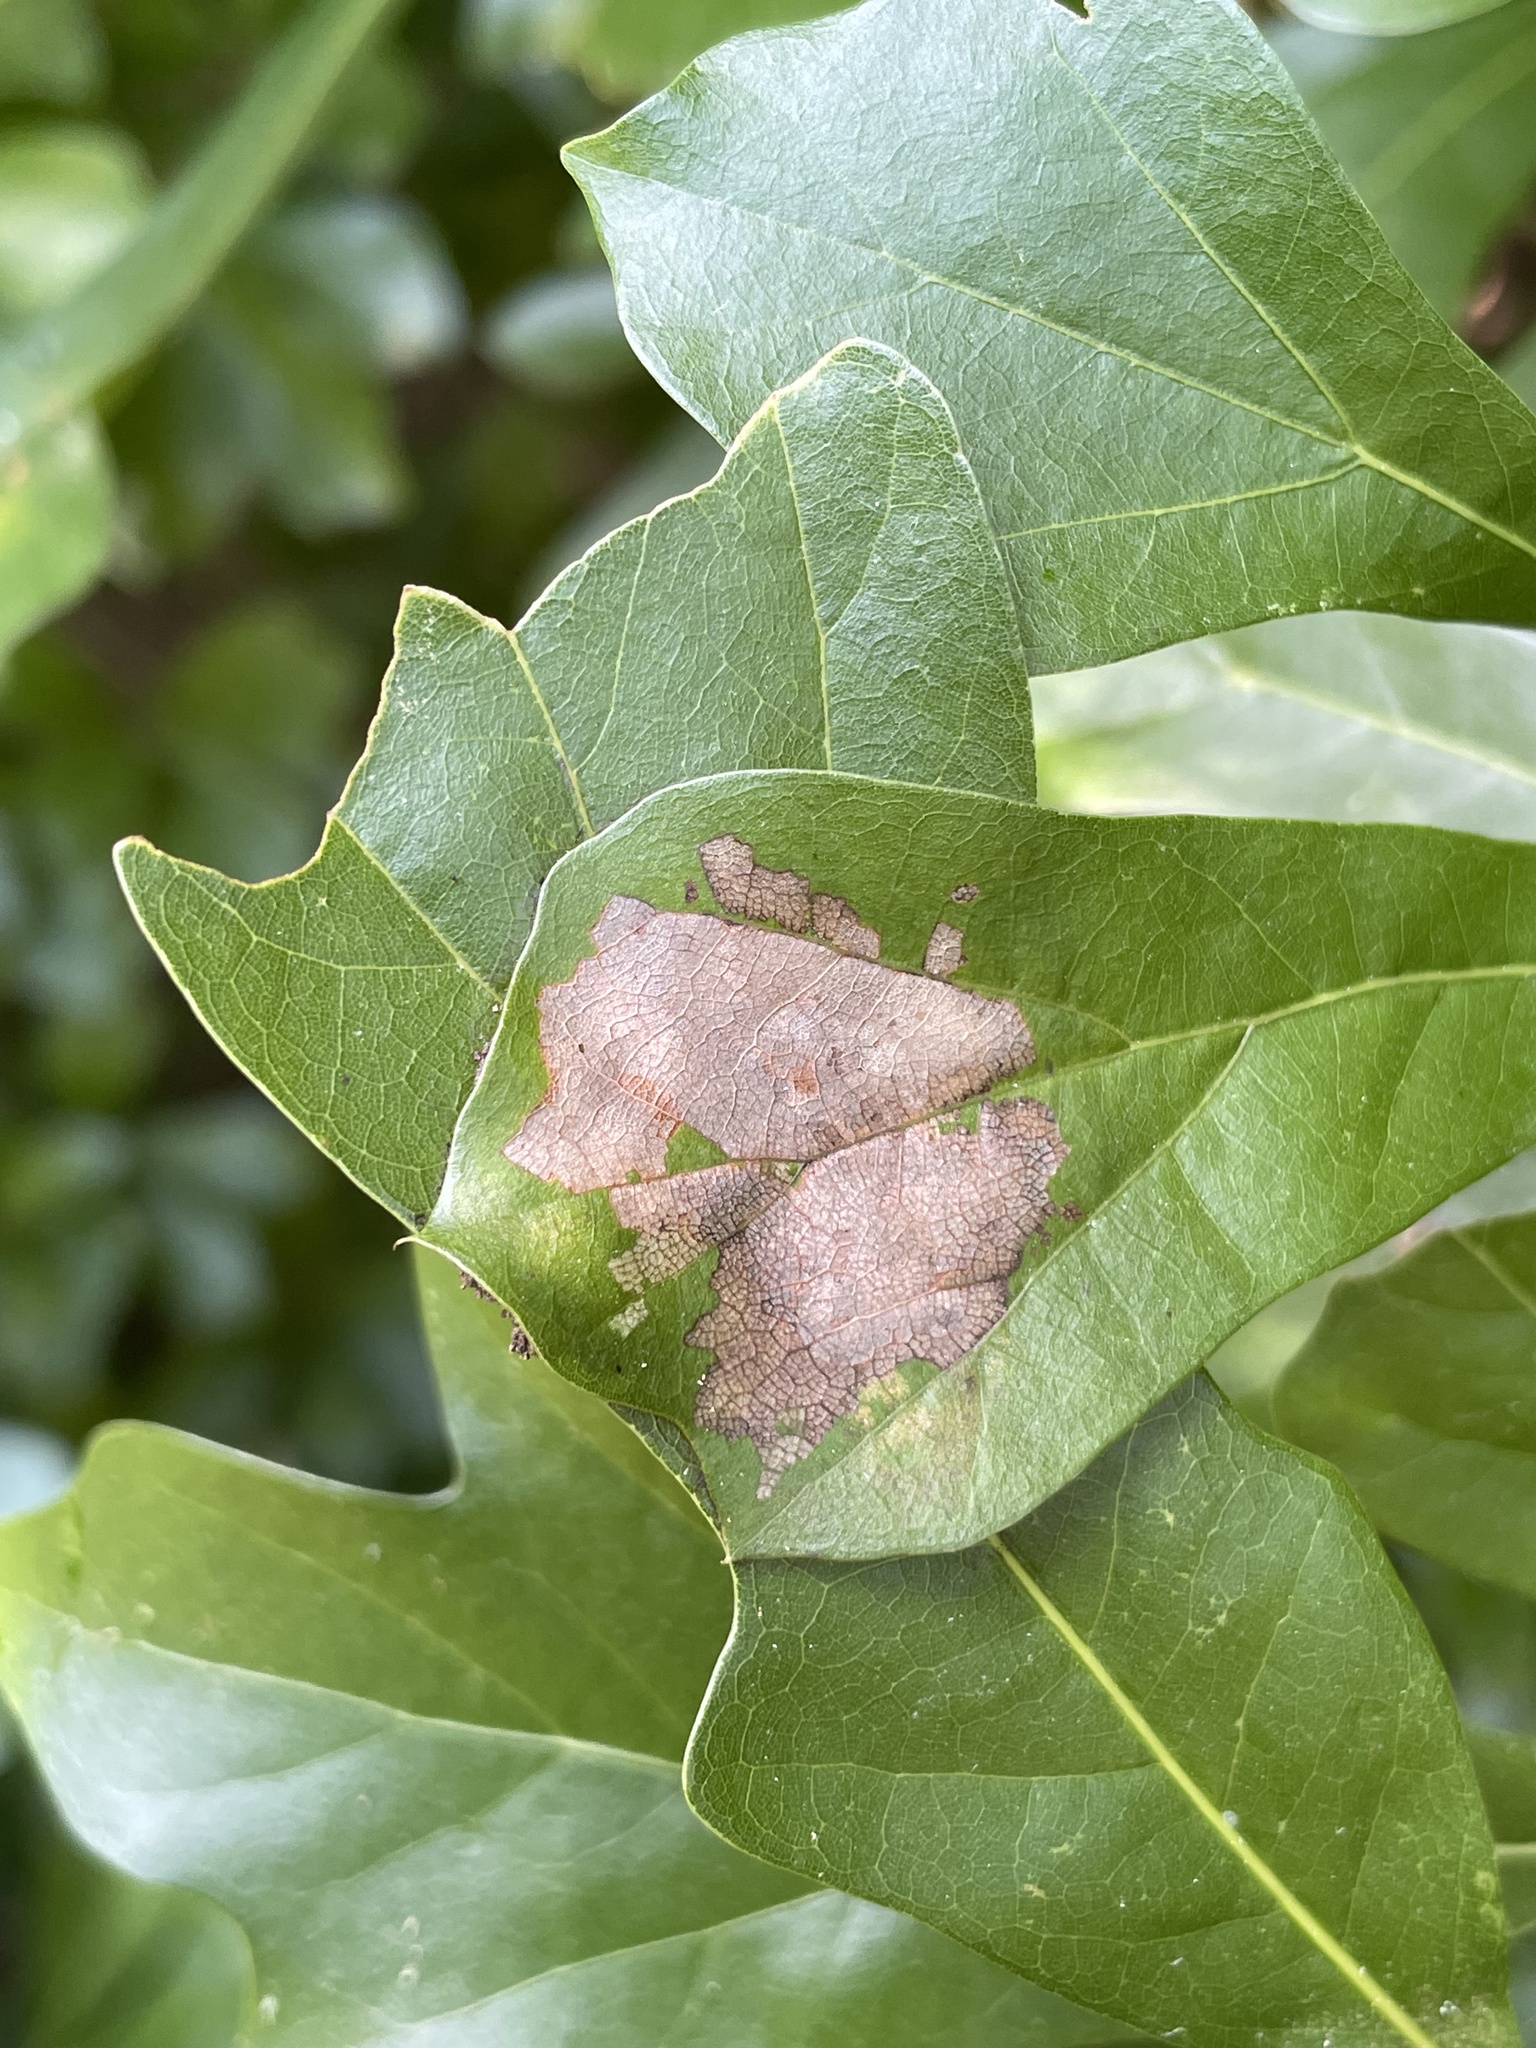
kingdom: Animalia
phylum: Arthropoda
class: Insecta
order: Lepidoptera
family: Depressariidae
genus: Psilocorsis
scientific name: Psilocorsis quercicella
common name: Oak leaftier moth
